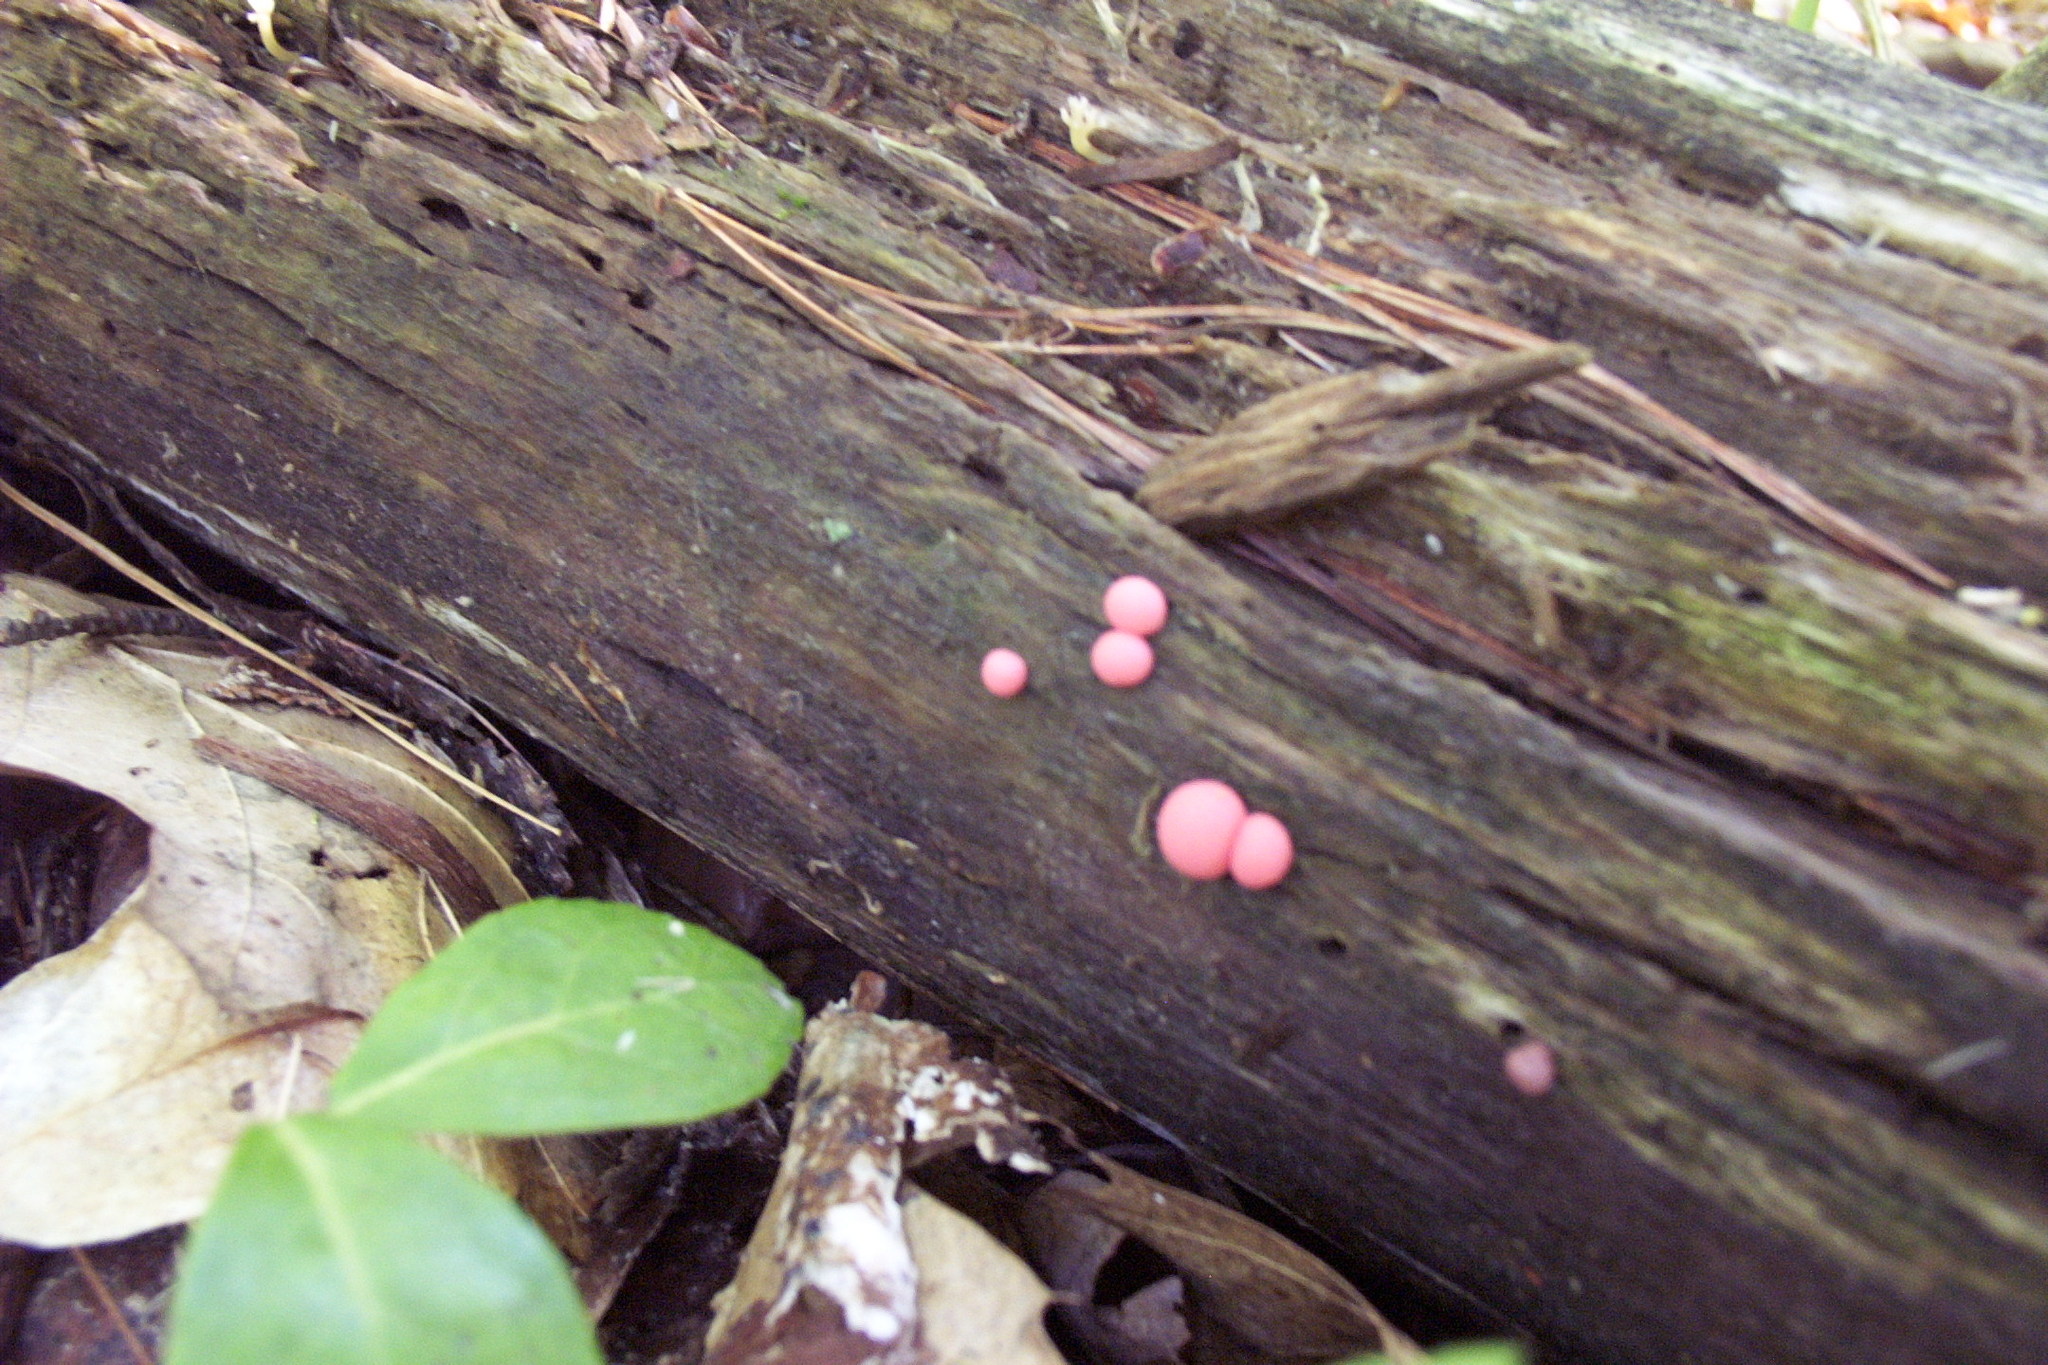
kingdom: Protozoa
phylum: Mycetozoa
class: Myxomycetes
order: Cribrariales
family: Tubiferaceae
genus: Lycogala
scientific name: Lycogala epidendrum
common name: Wolf's milk
